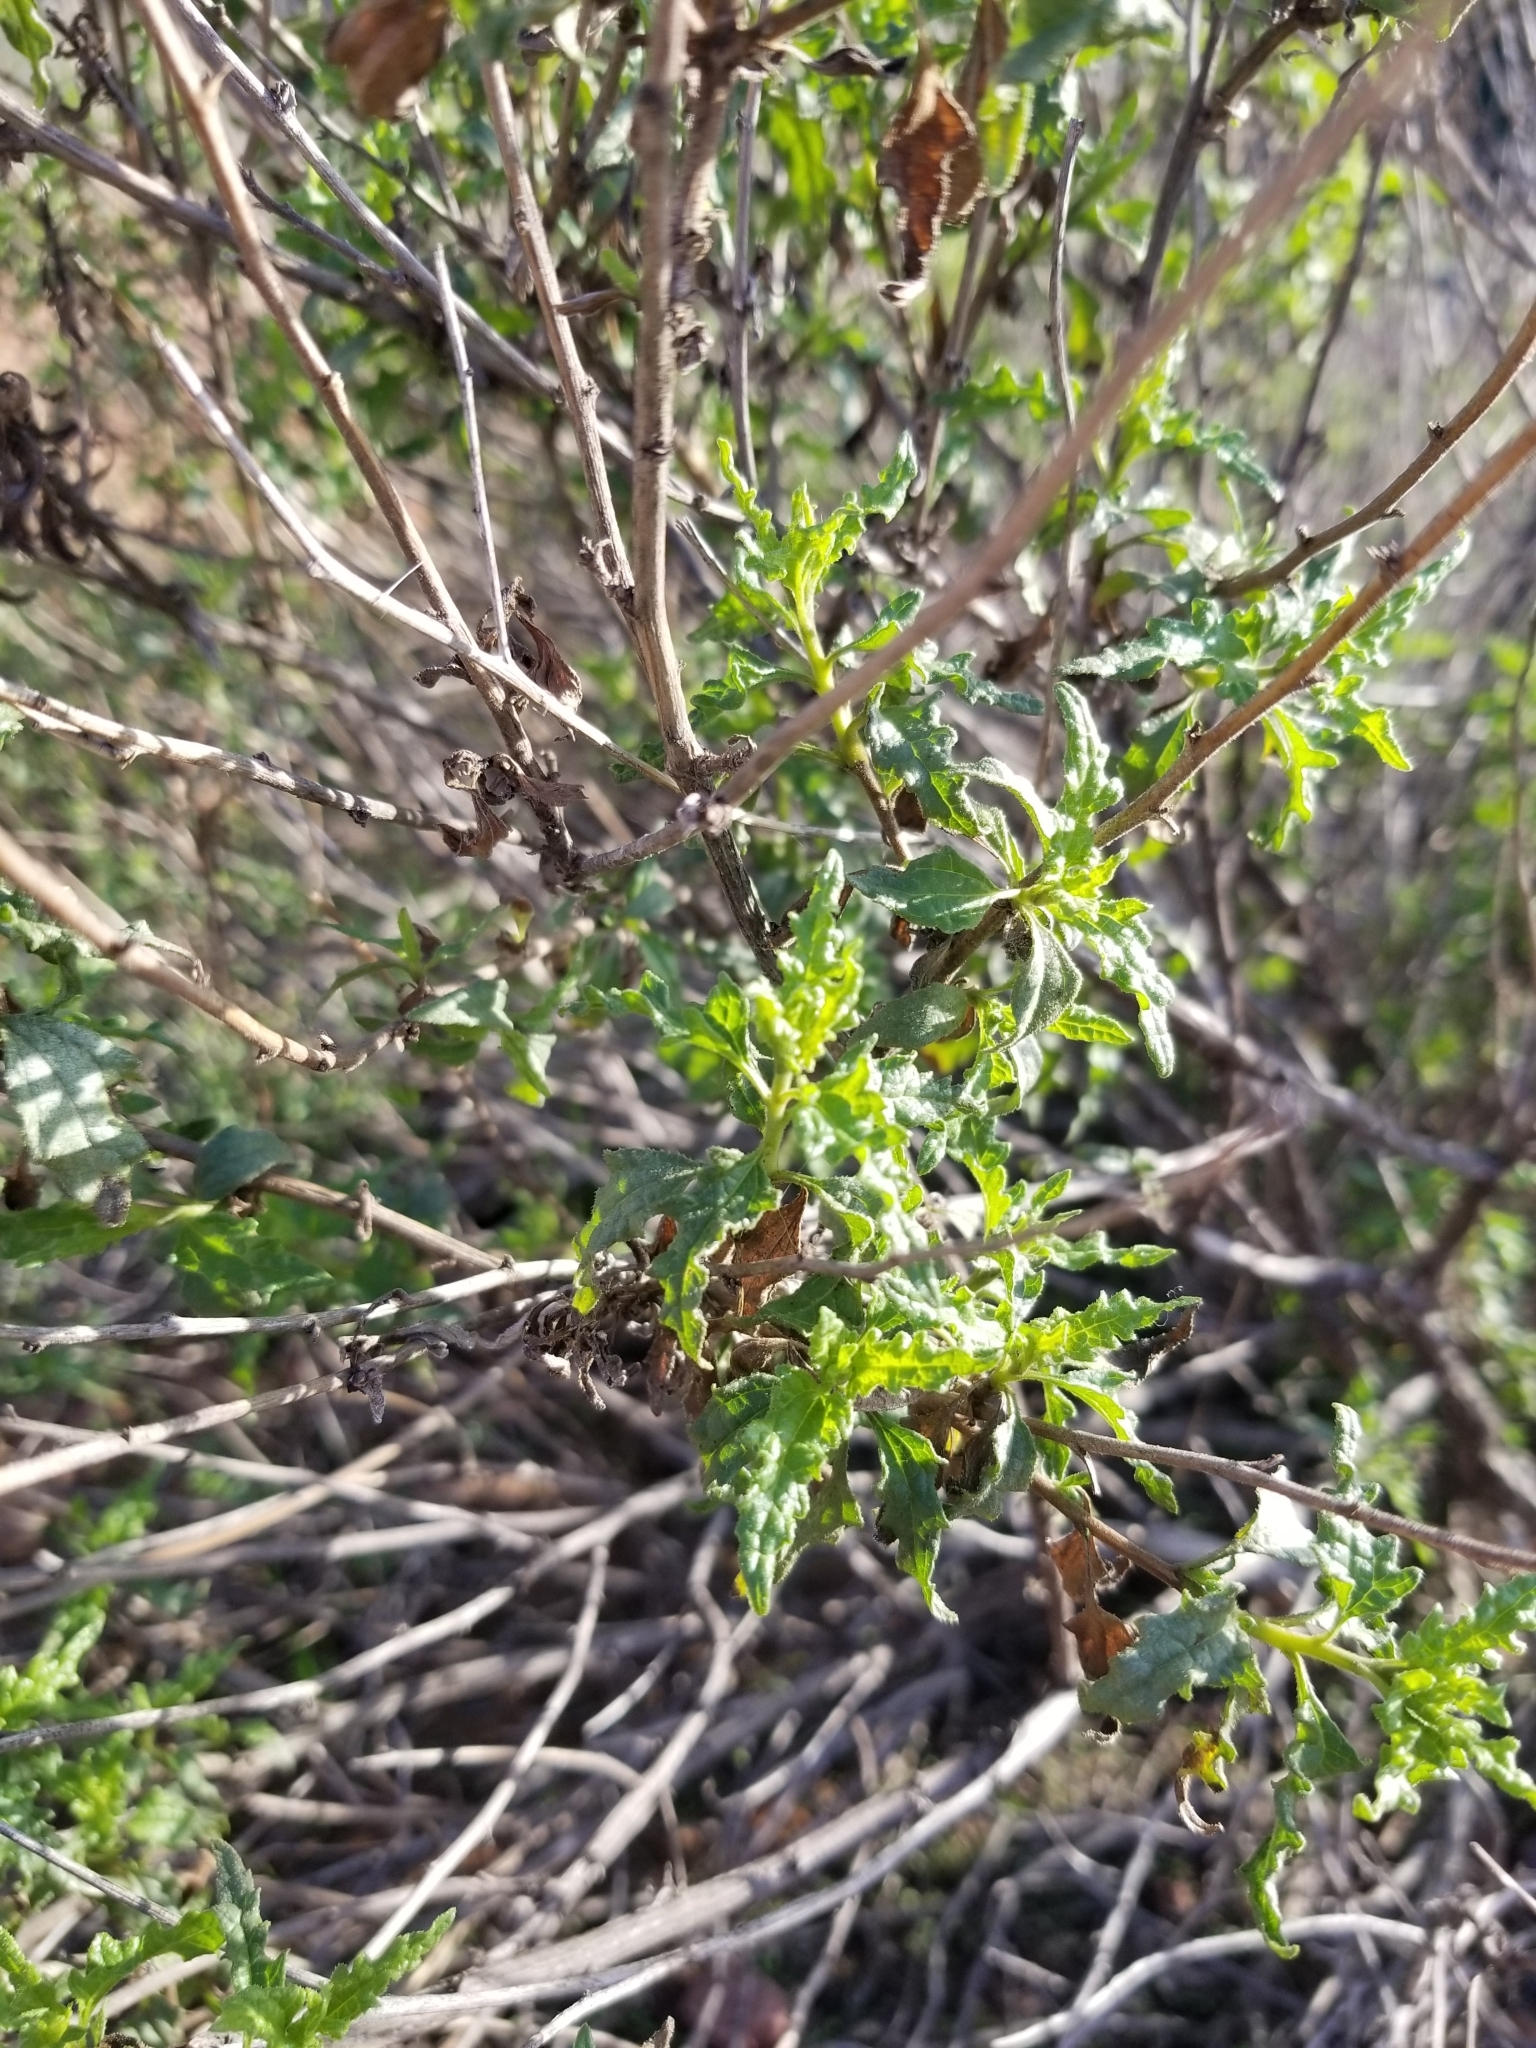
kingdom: Plantae
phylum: Tracheophyta
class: Magnoliopsida
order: Asterales
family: Asteraceae
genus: Bahiopsis
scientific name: Bahiopsis laciniata
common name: San diego county viguiera
